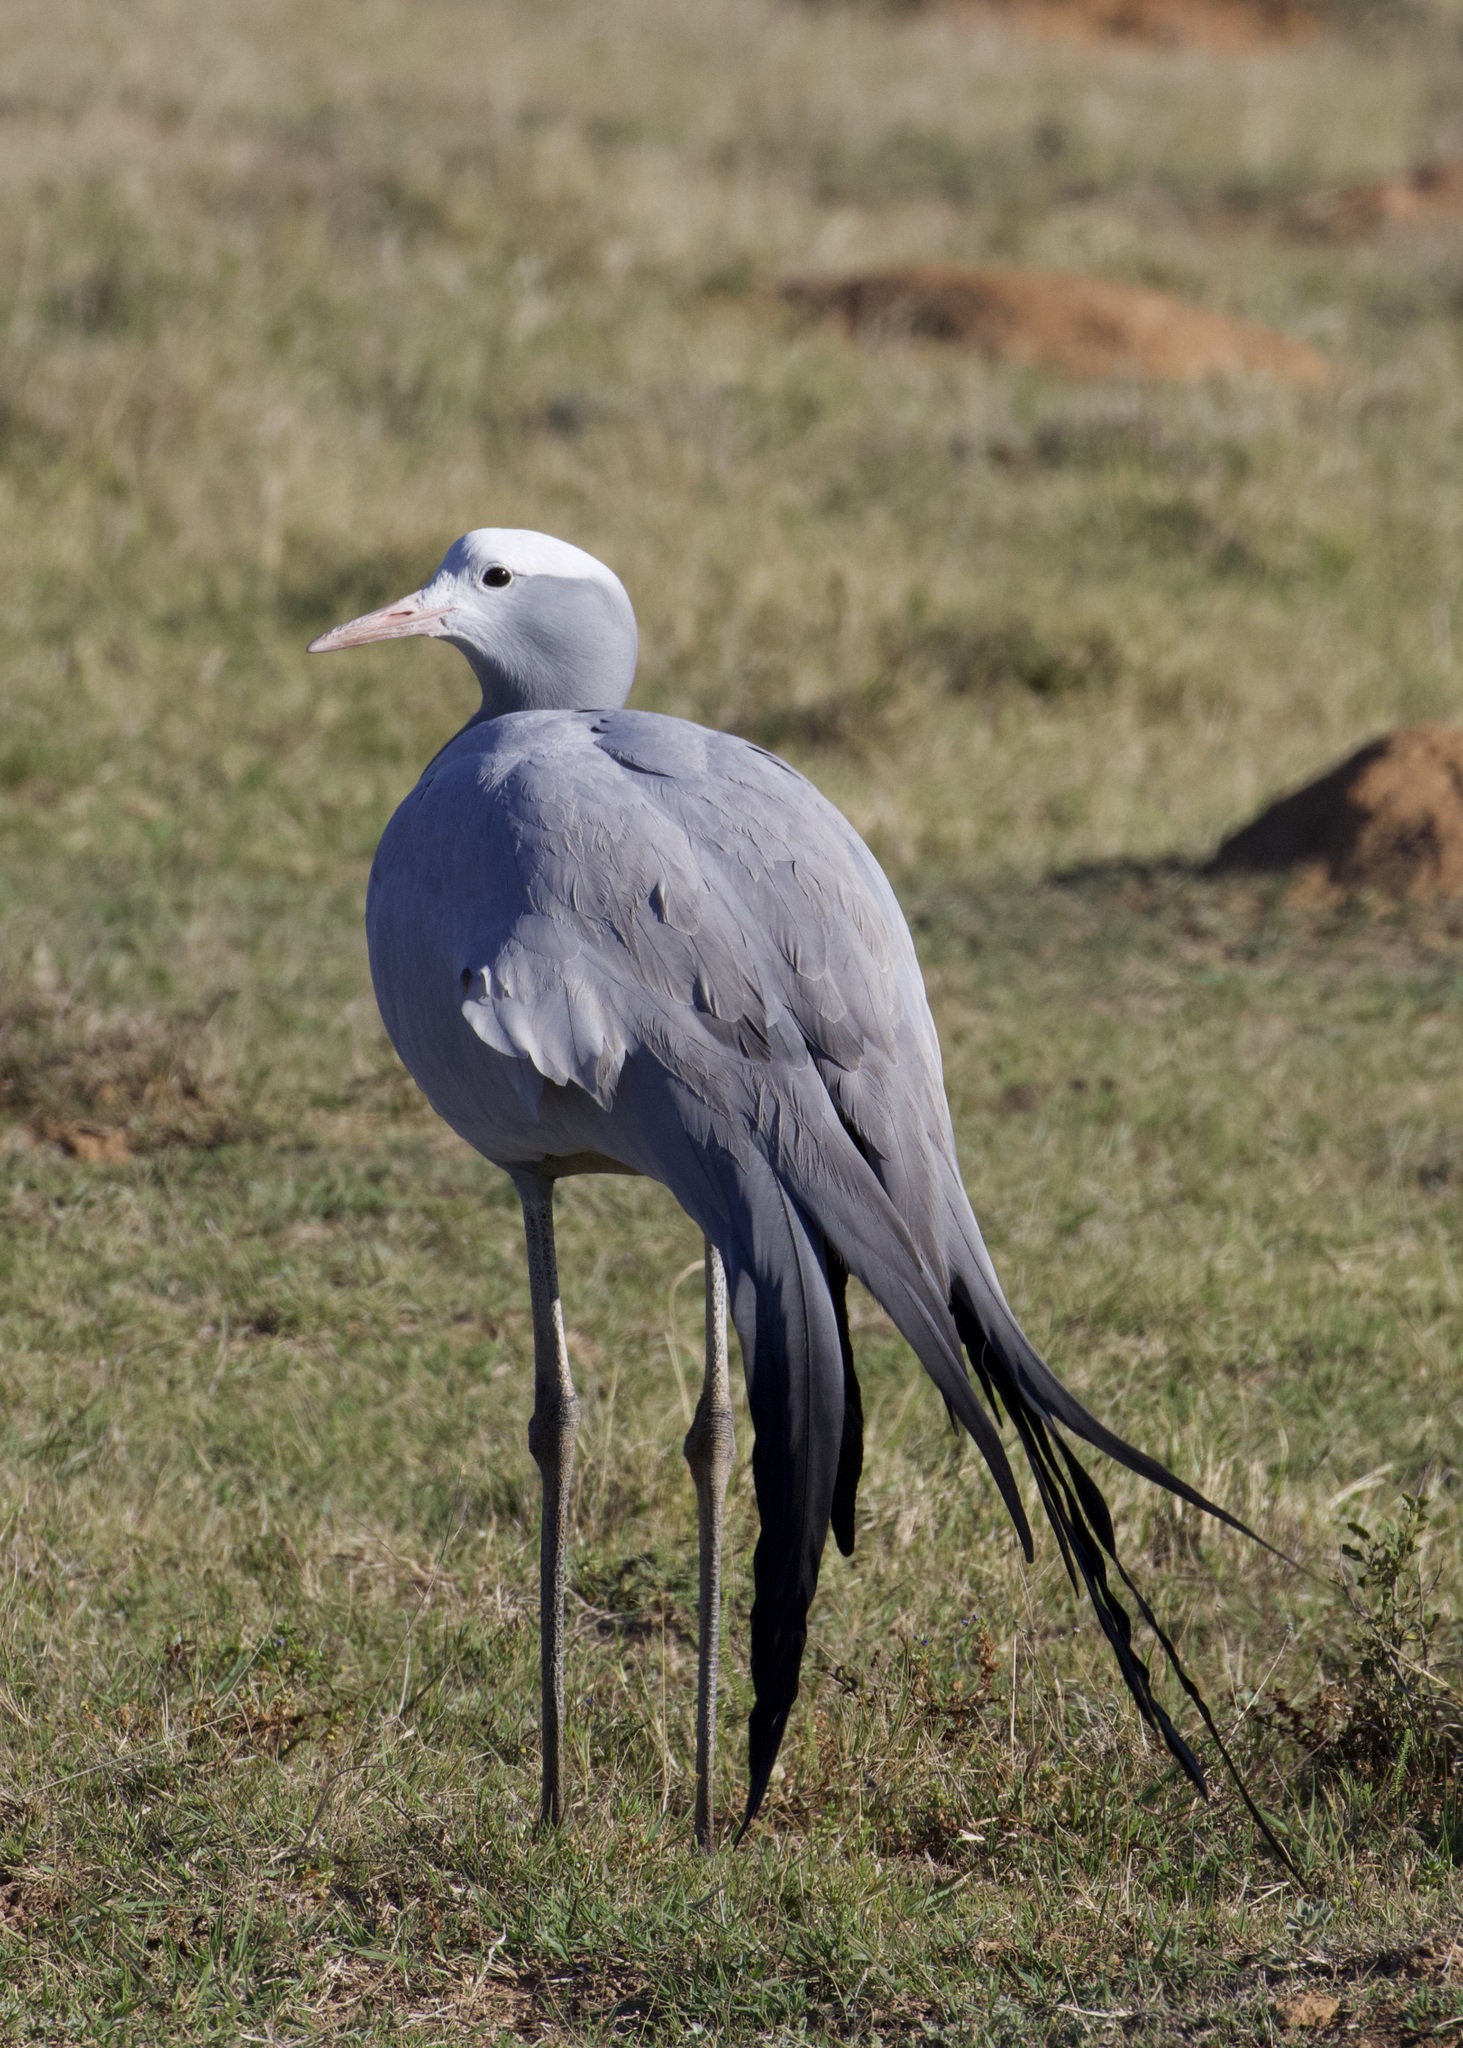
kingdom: Animalia
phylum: Chordata
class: Aves
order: Gruiformes
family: Gruidae
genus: Anthropoides
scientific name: Anthropoides paradiseus
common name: Blue crane
